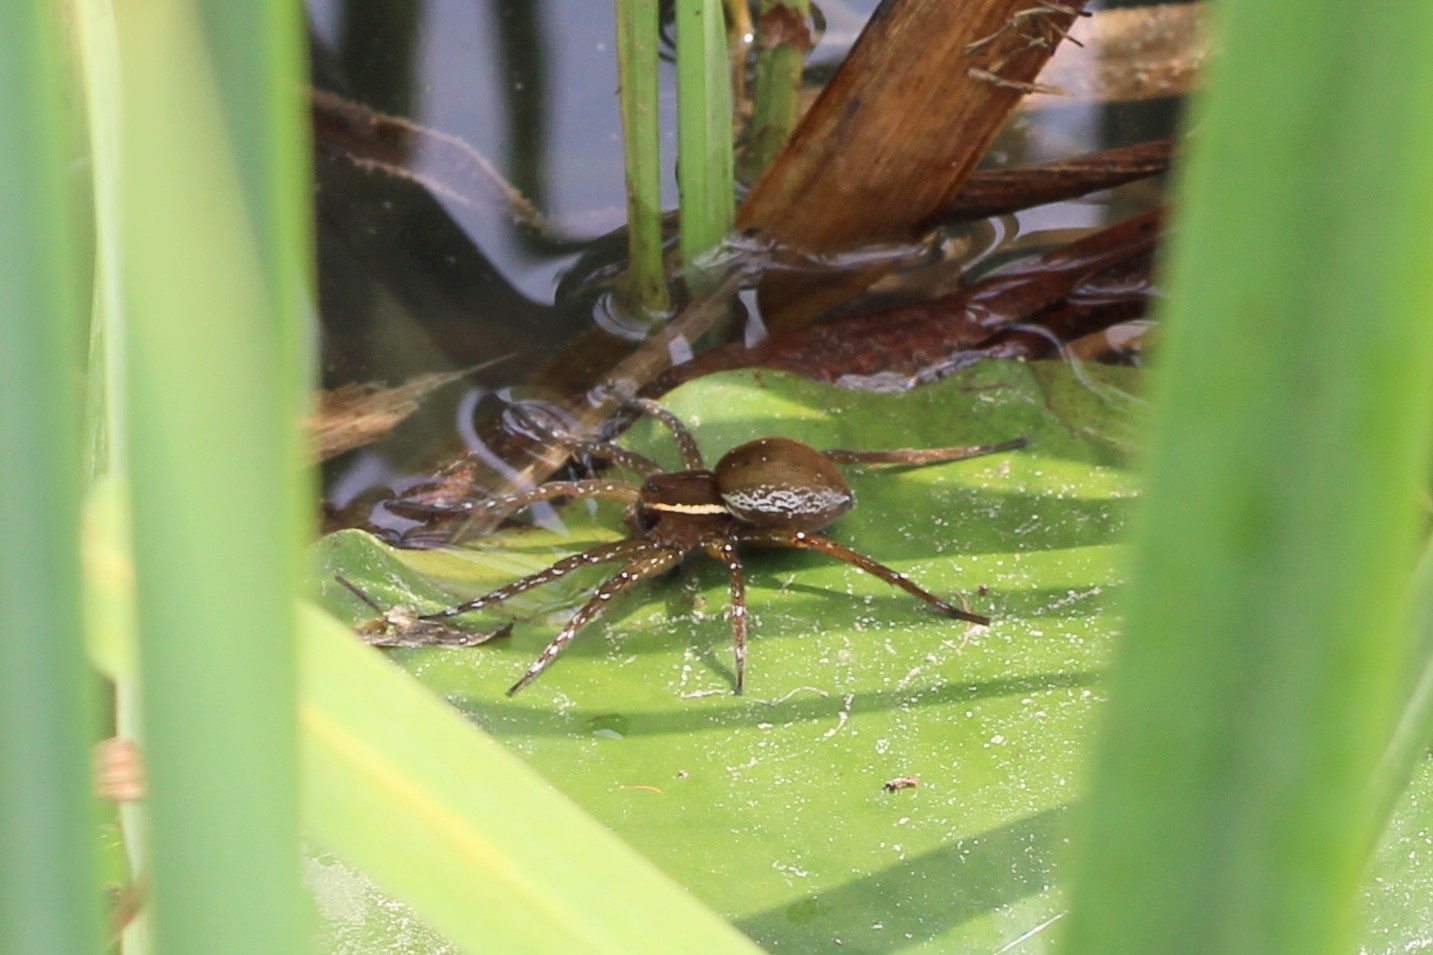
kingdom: Animalia
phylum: Arthropoda
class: Arachnida
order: Araneae
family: Pisauridae
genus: Dolomedes
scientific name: Dolomedes triton
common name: Six-spotted fishing spider
